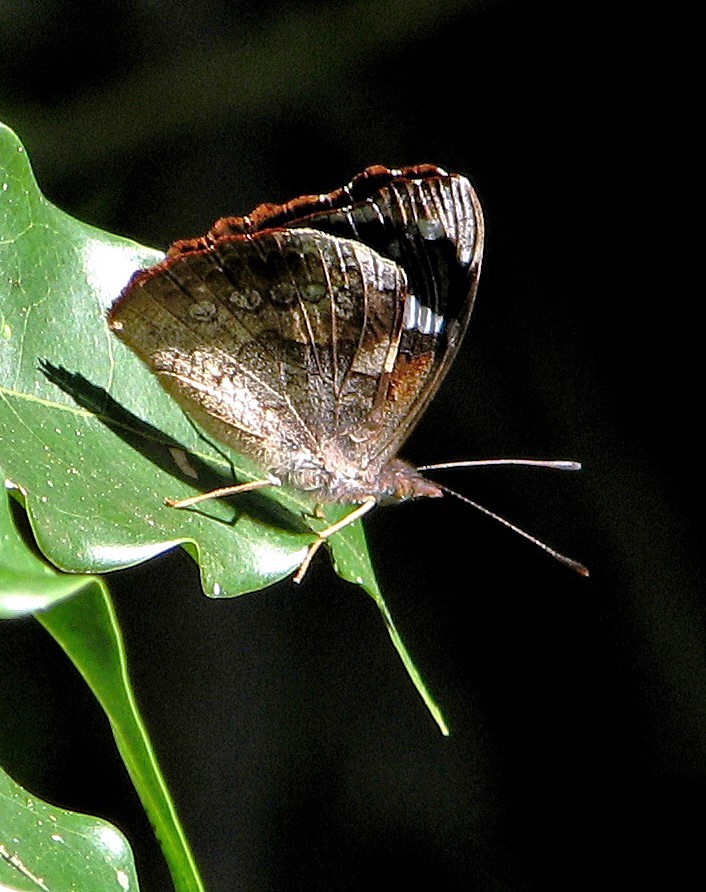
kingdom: Animalia
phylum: Arthropoda
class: Insecta
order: Lepidoptera
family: Nymphalidae
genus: Cybdelis
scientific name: Cybdelis phaesyla
